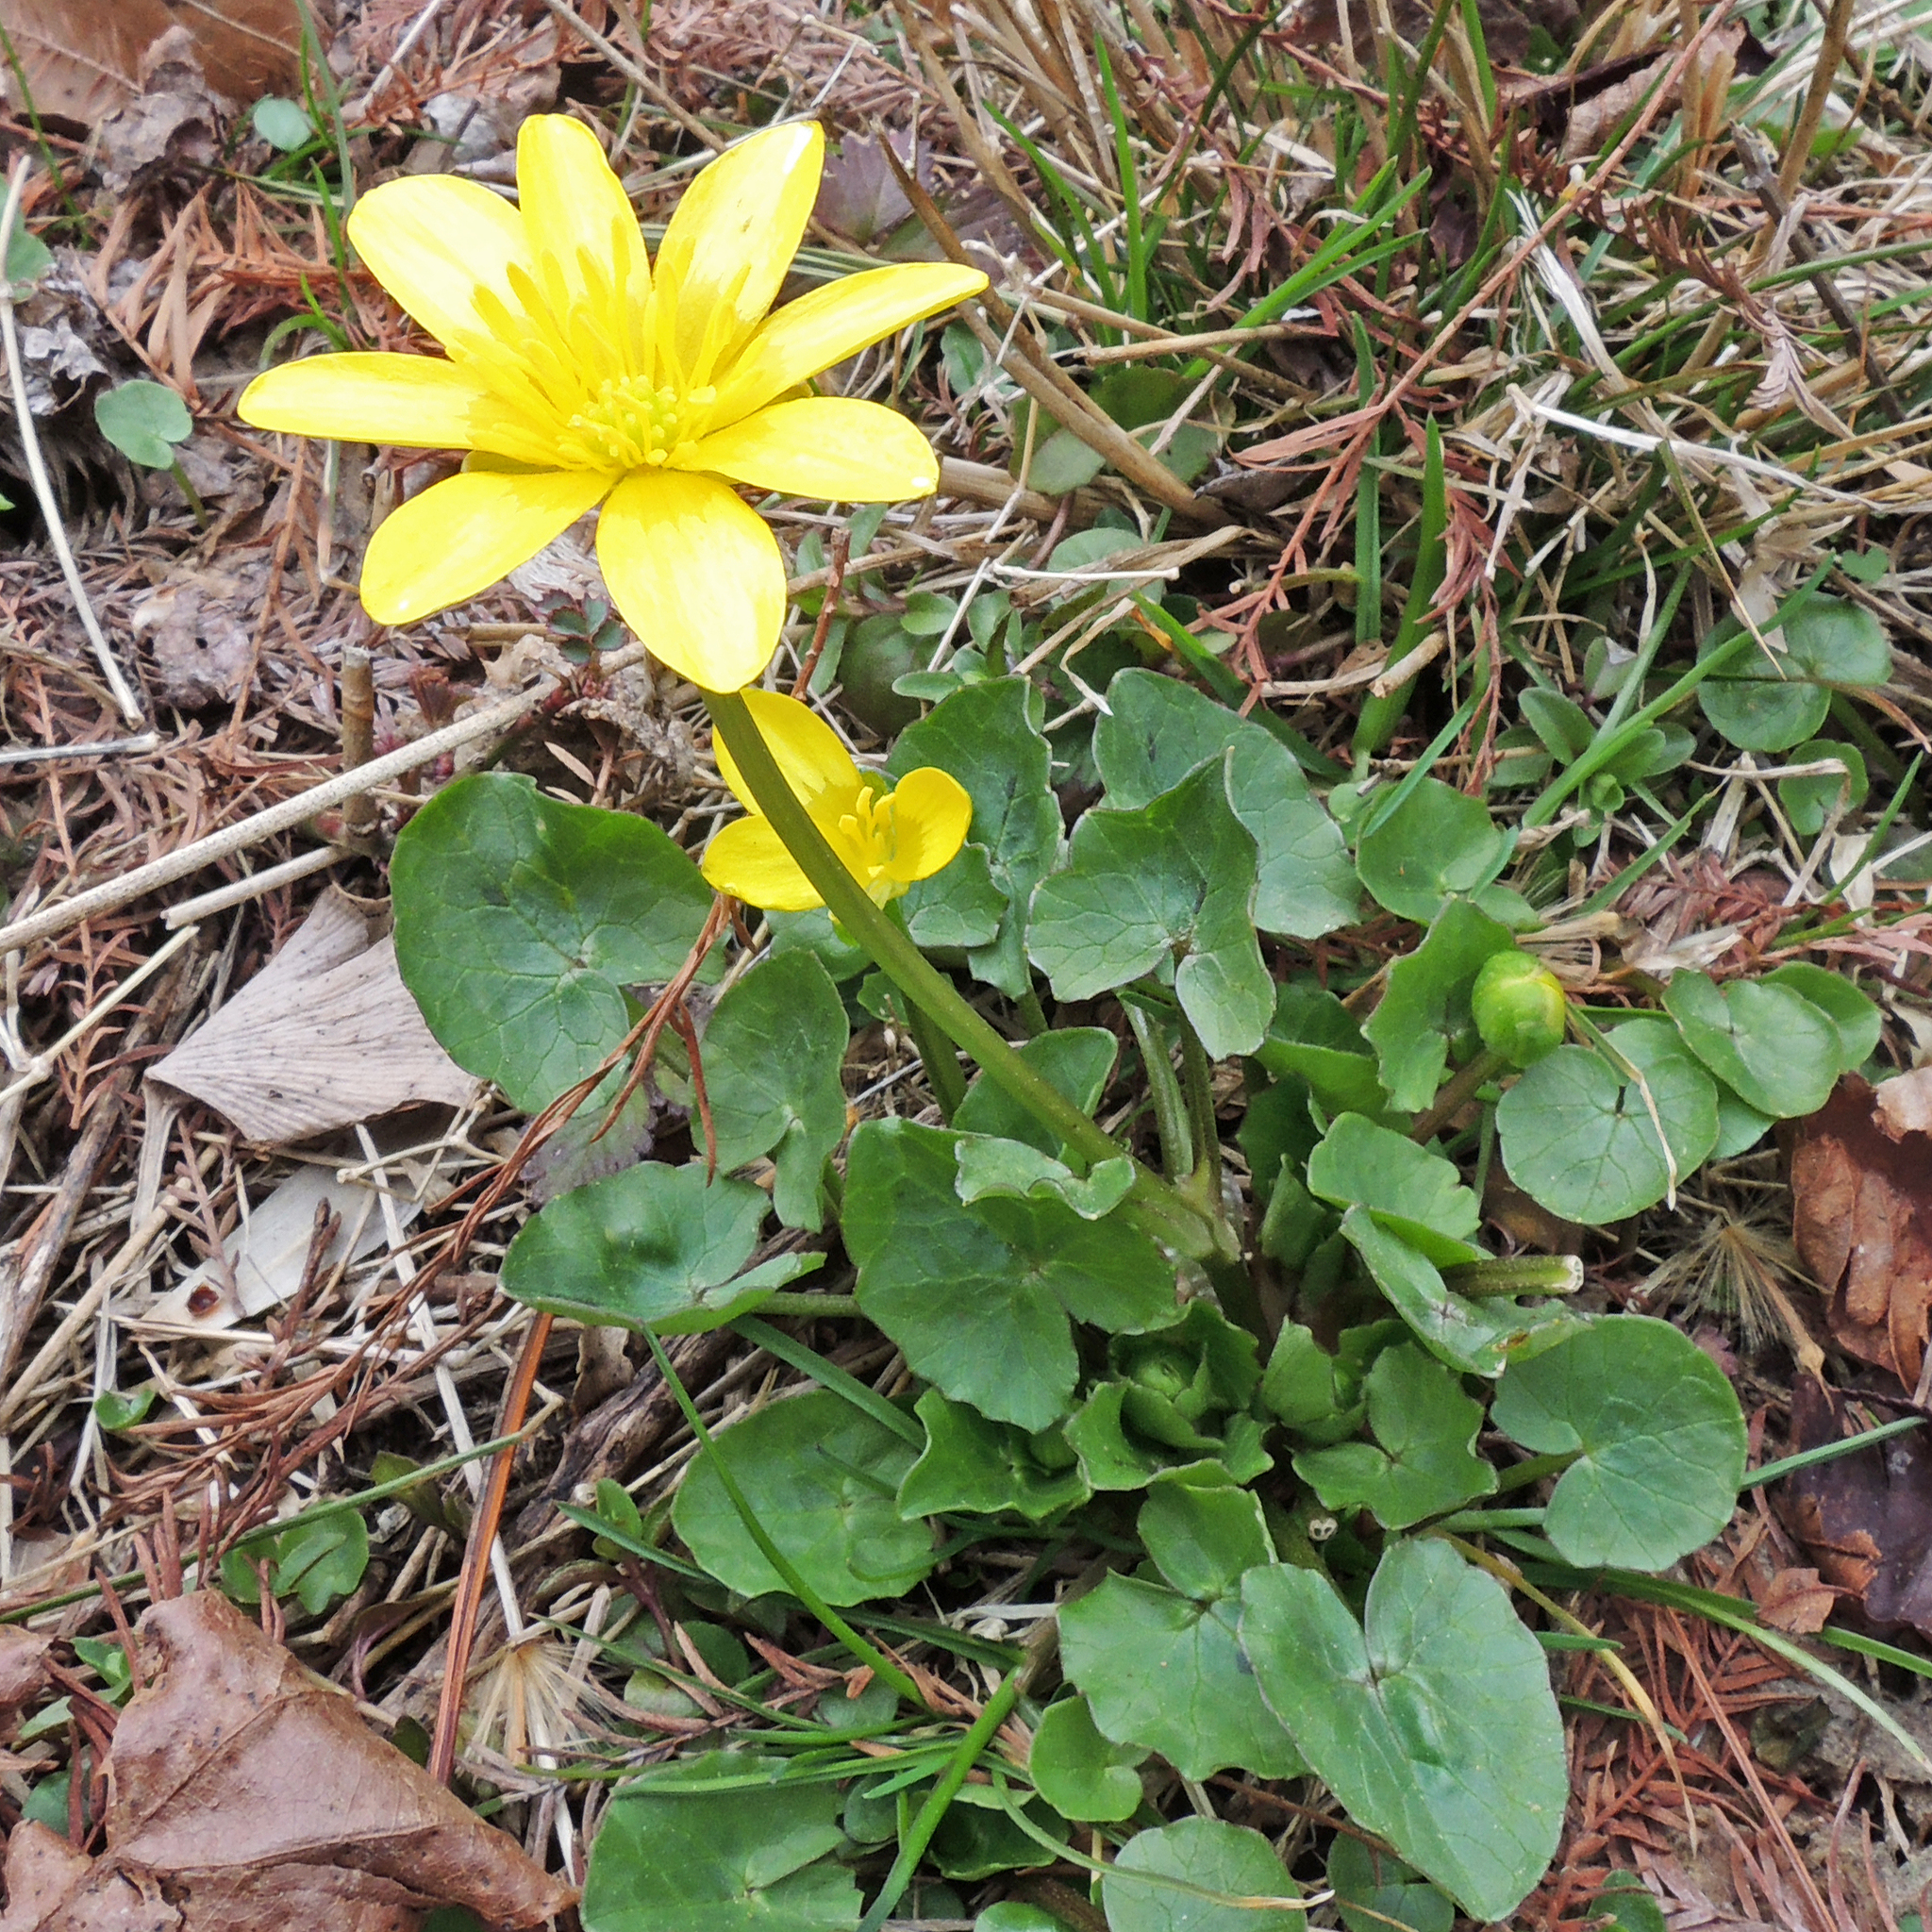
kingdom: Plantae
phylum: Tracheophyta
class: Magnoliopsida
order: Ranunculales
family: Ranunculaceae
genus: Ficaria
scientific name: Ficaria verna
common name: Lesser celandine
